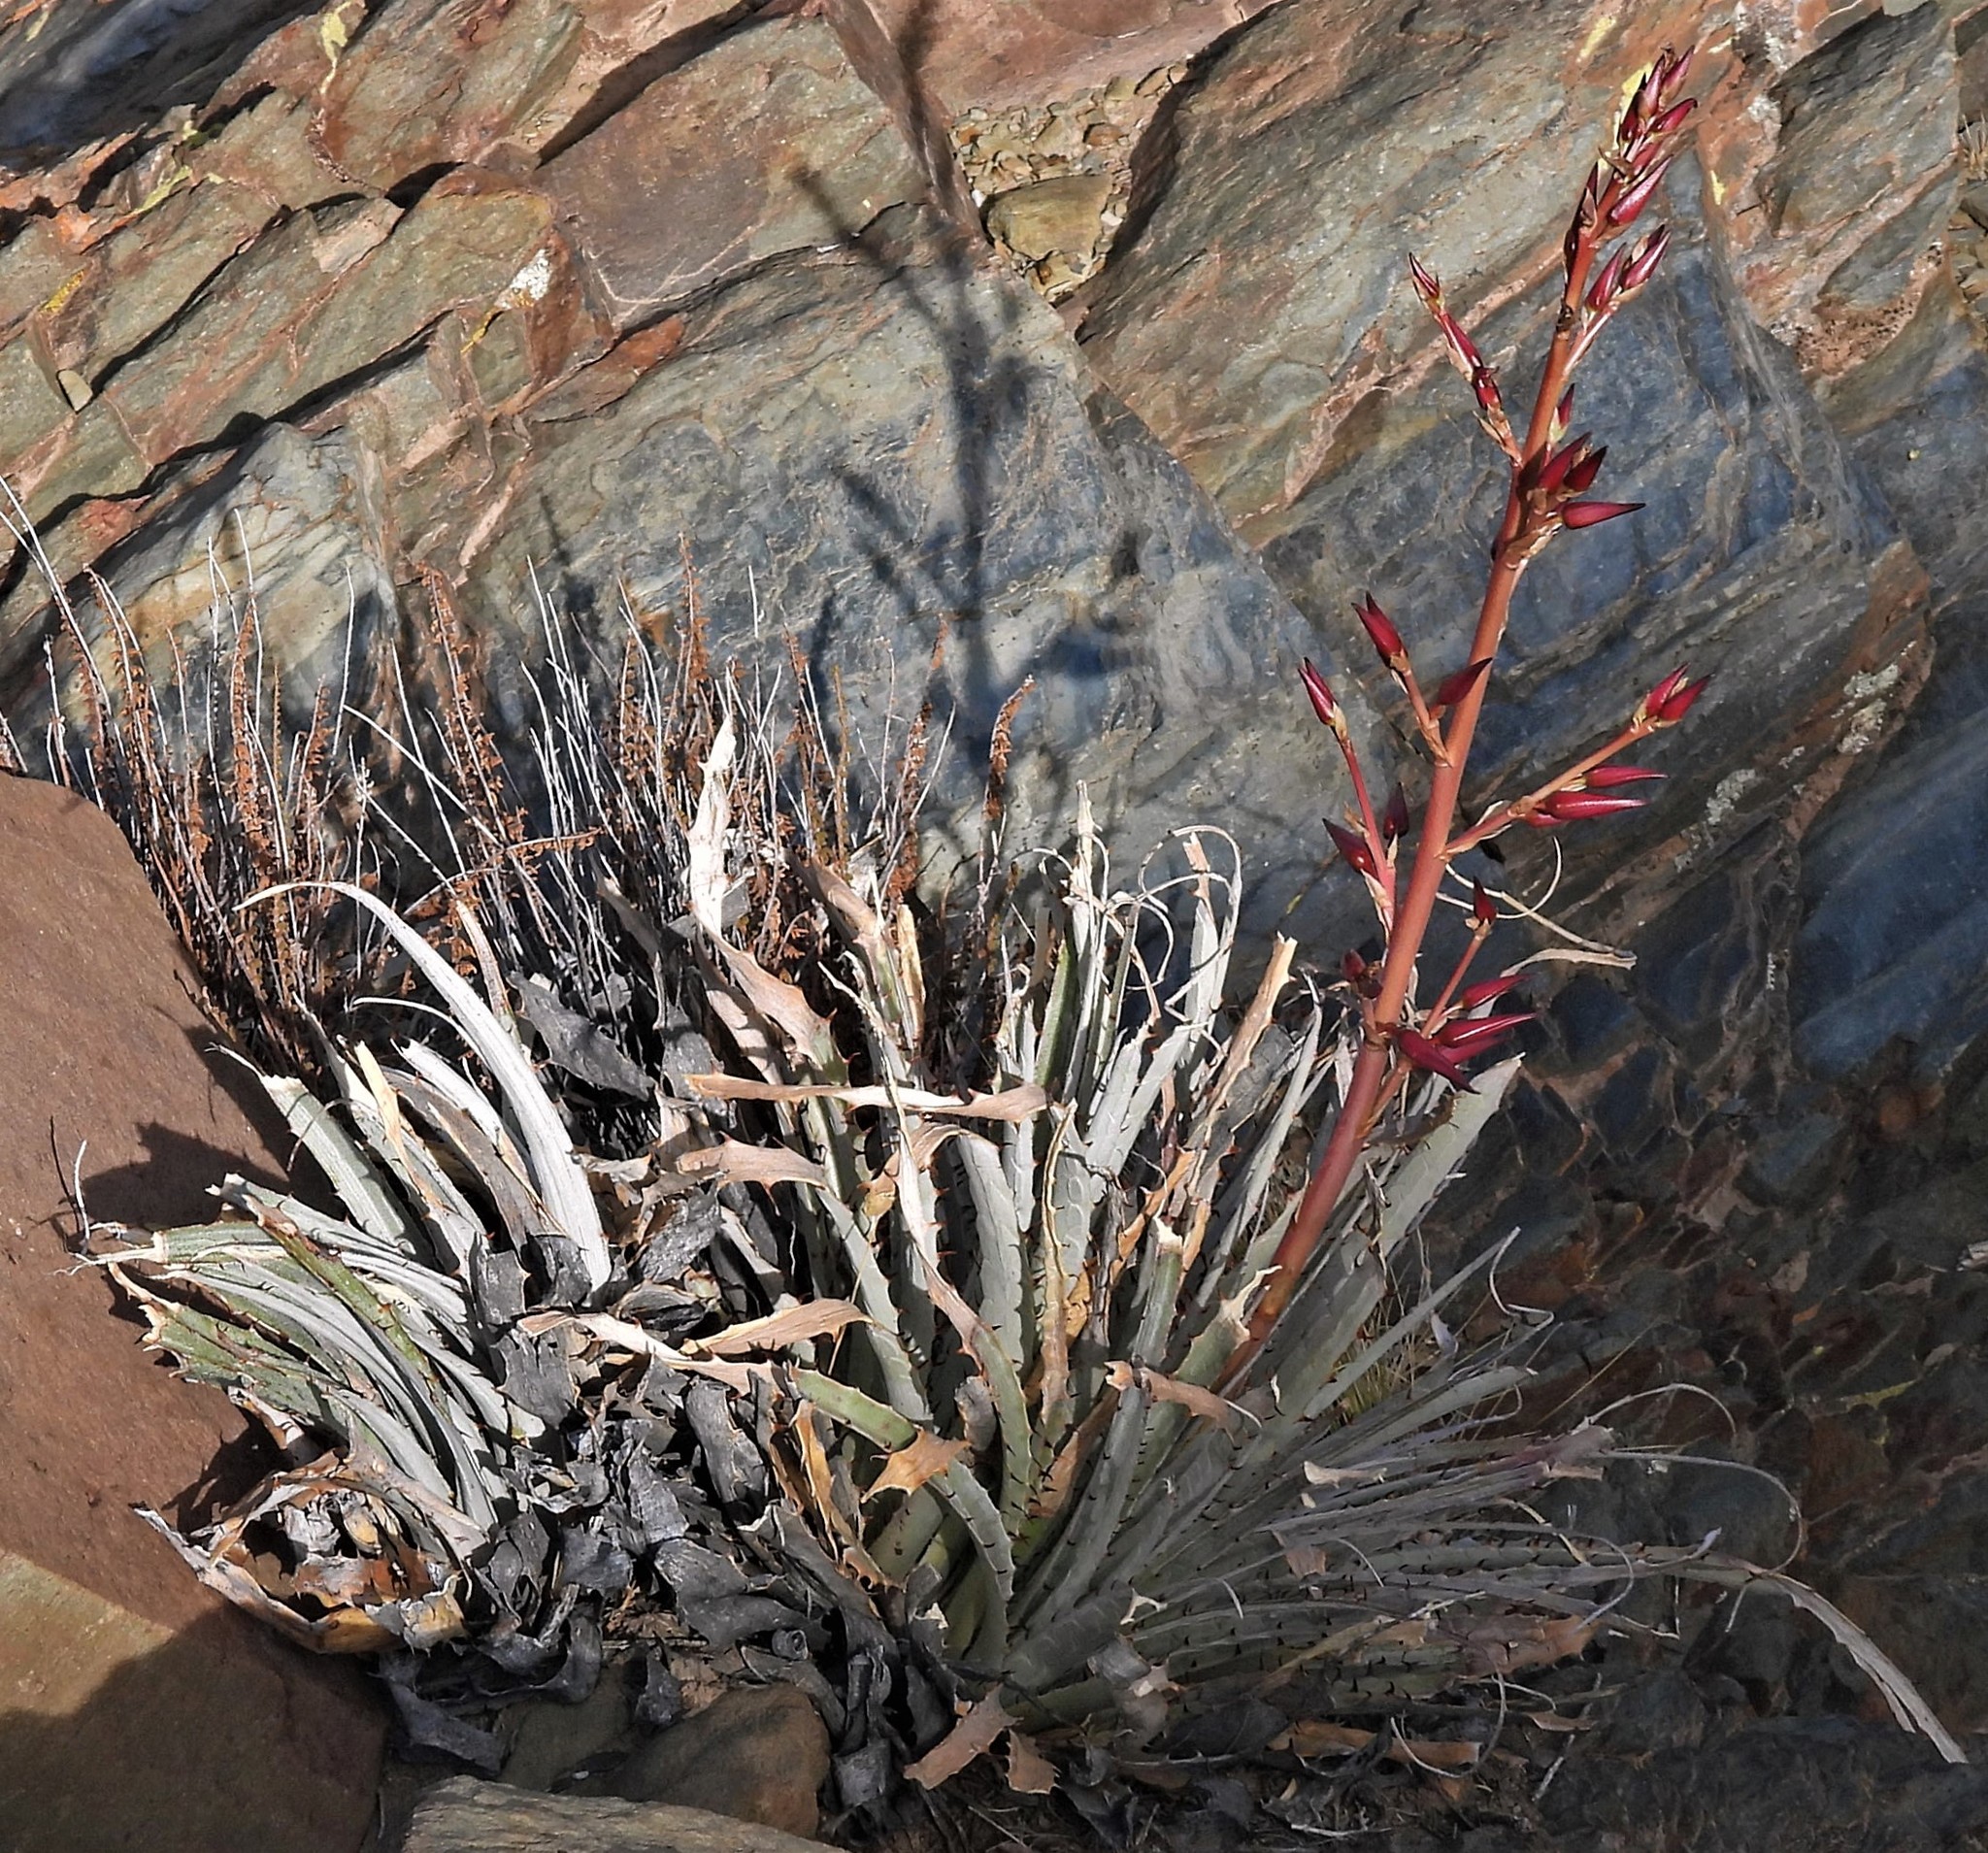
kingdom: Plantae
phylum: Tracheophyta
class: Liliopsida
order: Poales
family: Bromeliaceae
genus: Puya
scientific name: Puya hofstenii
